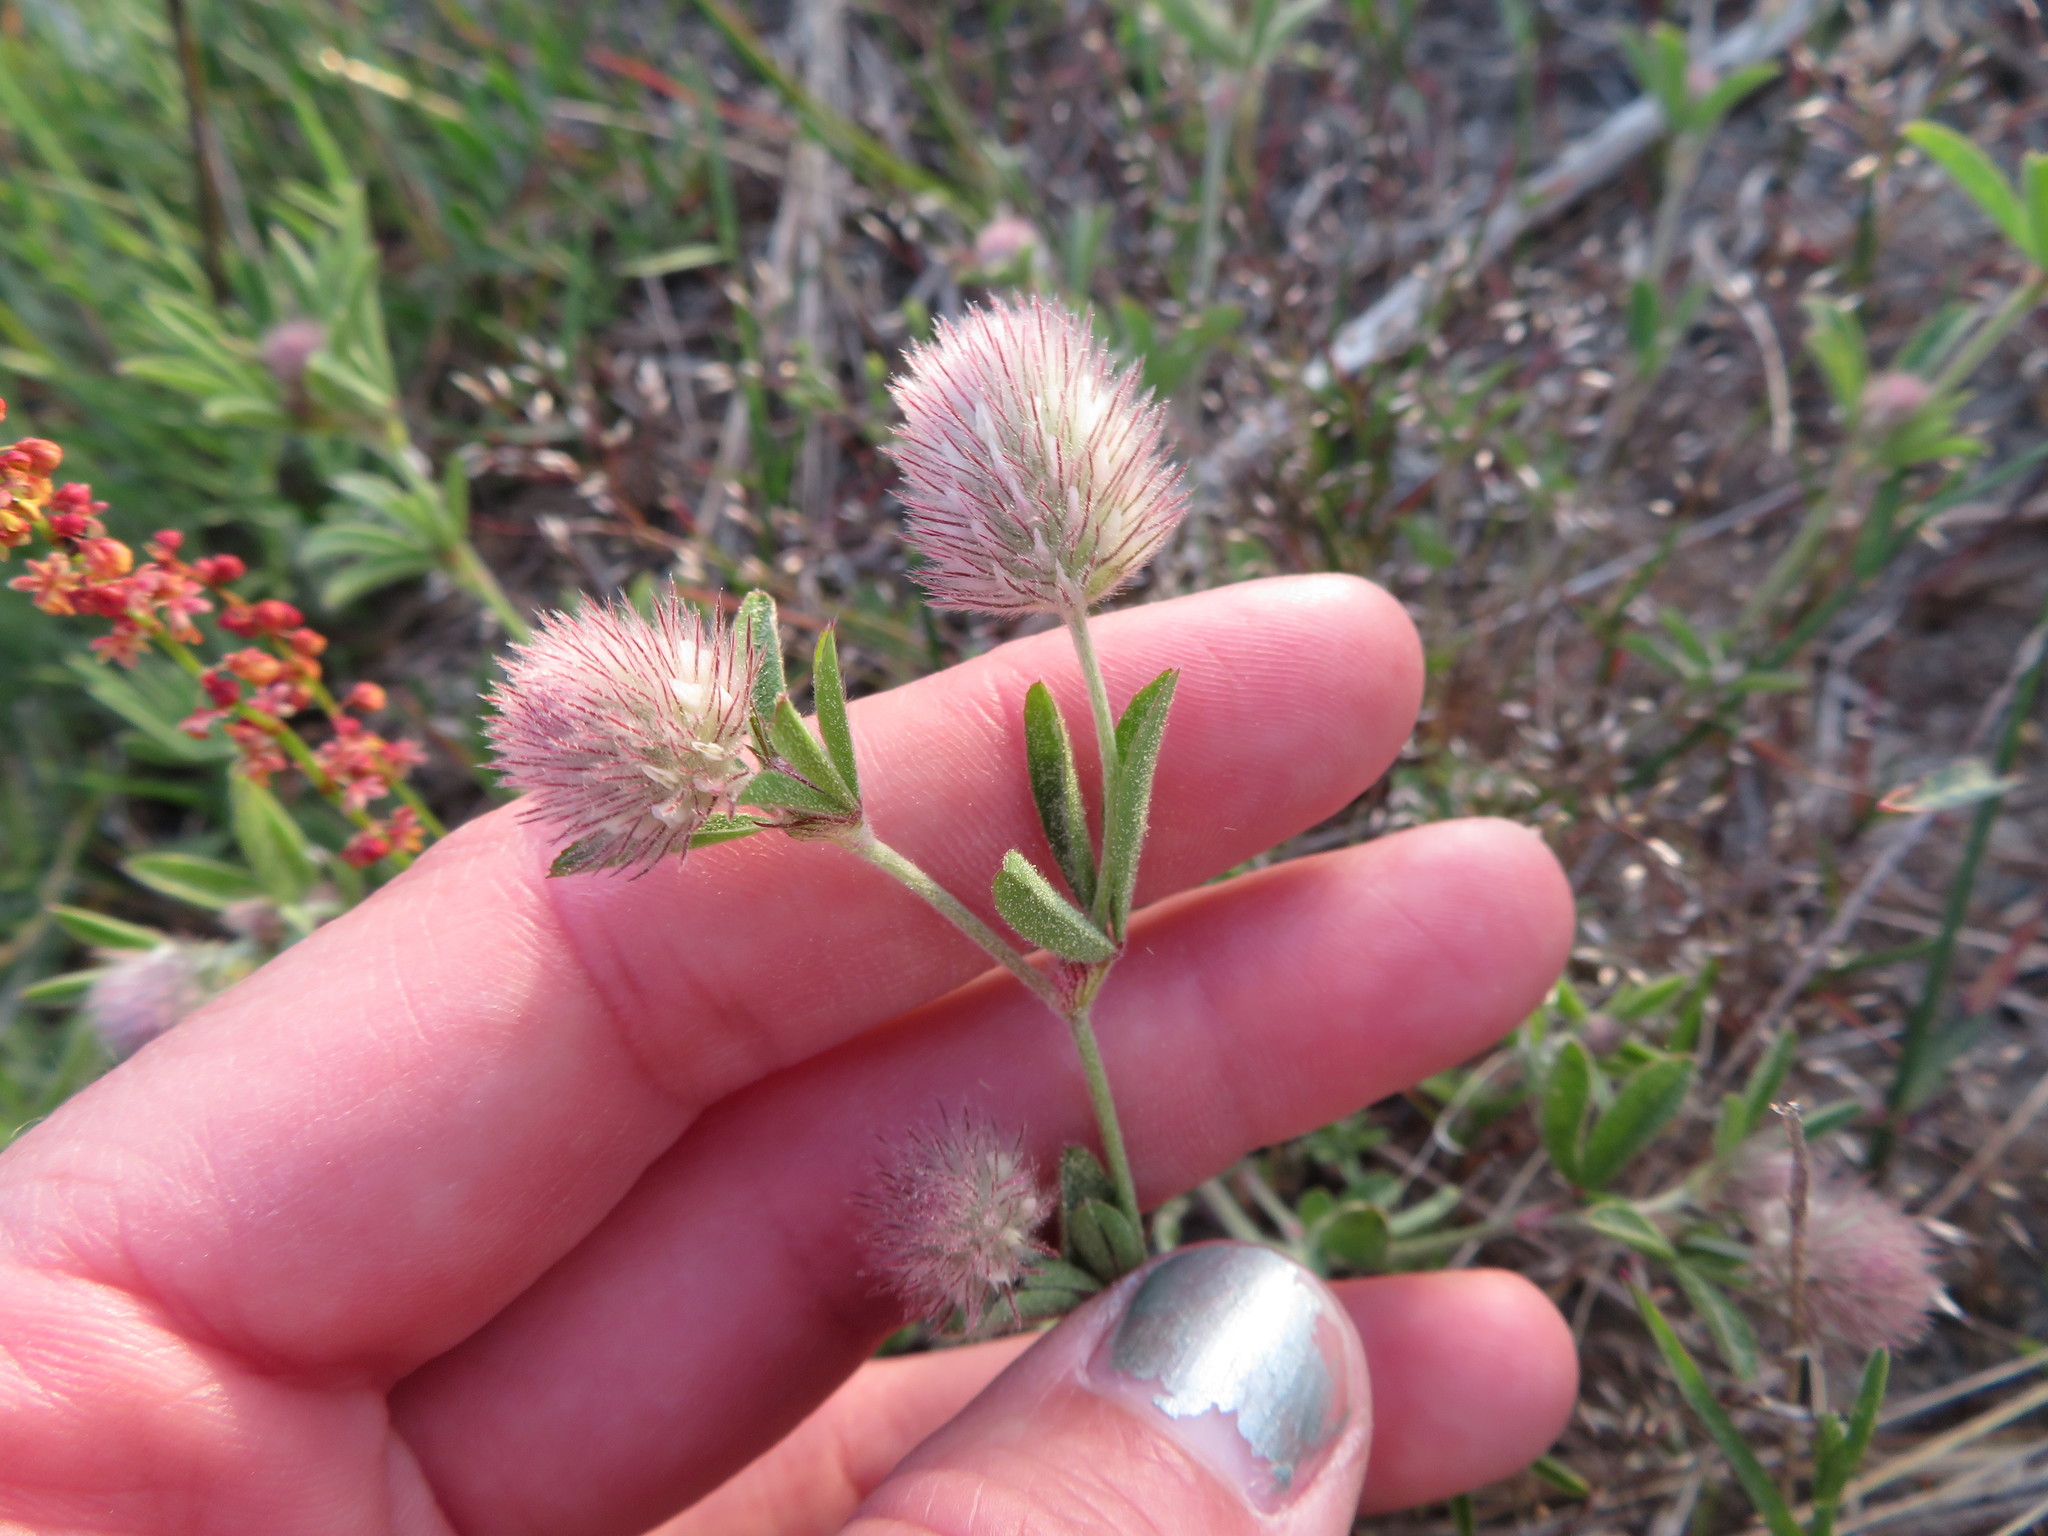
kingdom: Plantae
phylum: Tracheophyta
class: Magnoliopsida
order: Fabales
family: Fabaceae
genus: Trifolium
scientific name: Trifolium arvense
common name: Hare's-foot clover
